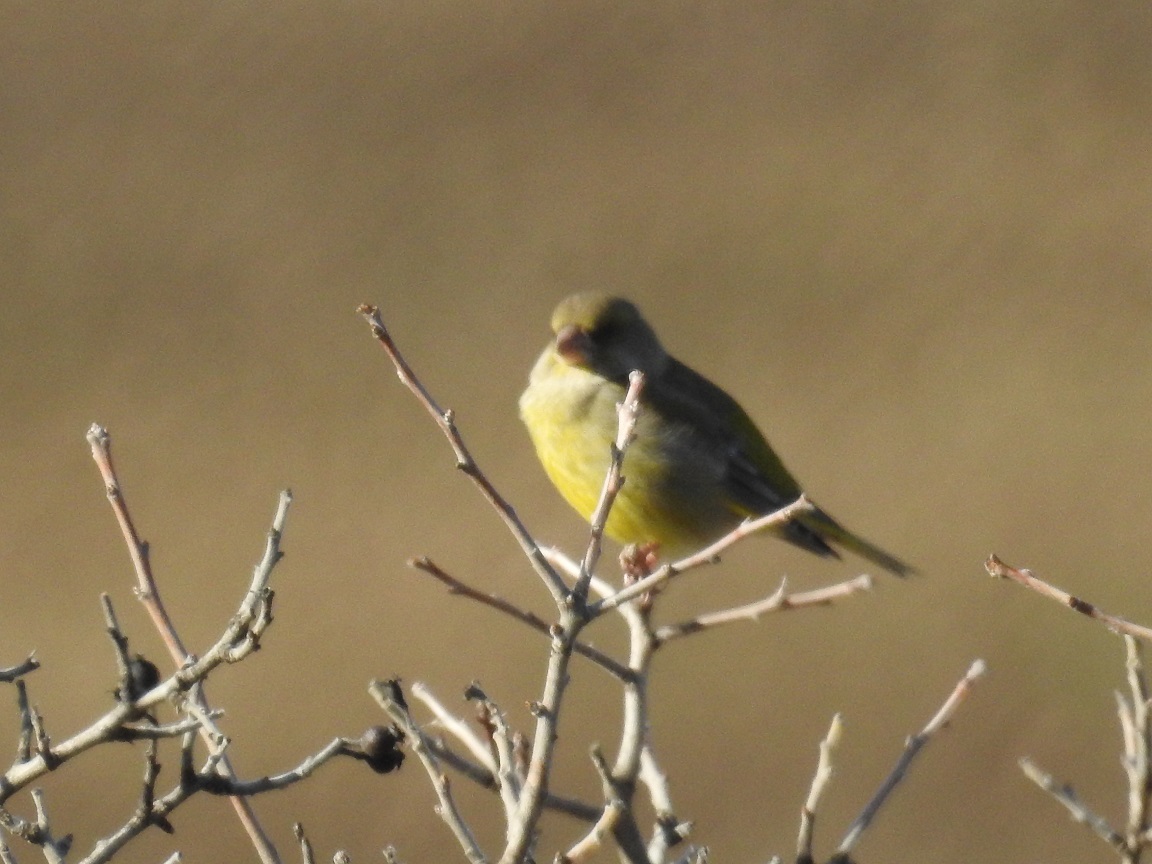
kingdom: Plantae
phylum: Tracheophyta
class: Liliopsida
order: Poales
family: Poaceae
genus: Chloris
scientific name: Chloris chloris
